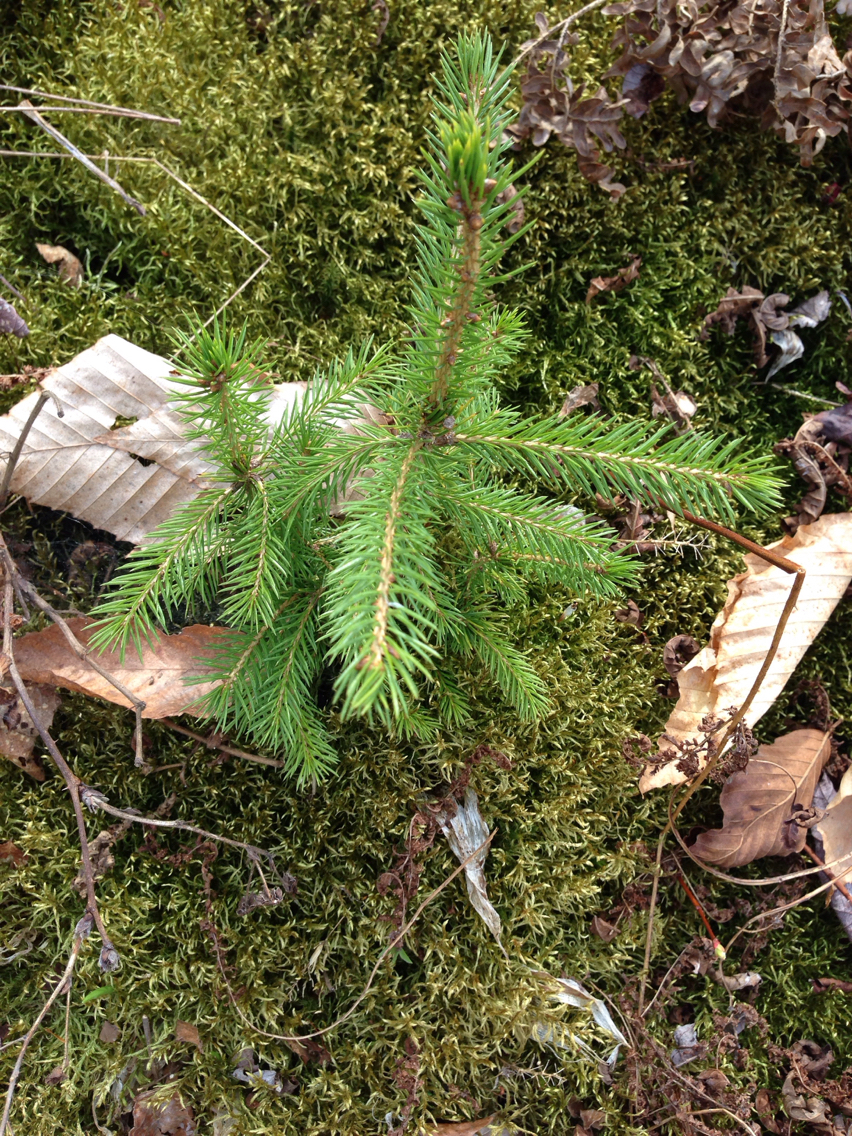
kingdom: Plantae
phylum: Tracheophyta
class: Pinopsida
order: Pinales
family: Pinaceae
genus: Picea
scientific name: Picea rubens
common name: Red spruce
